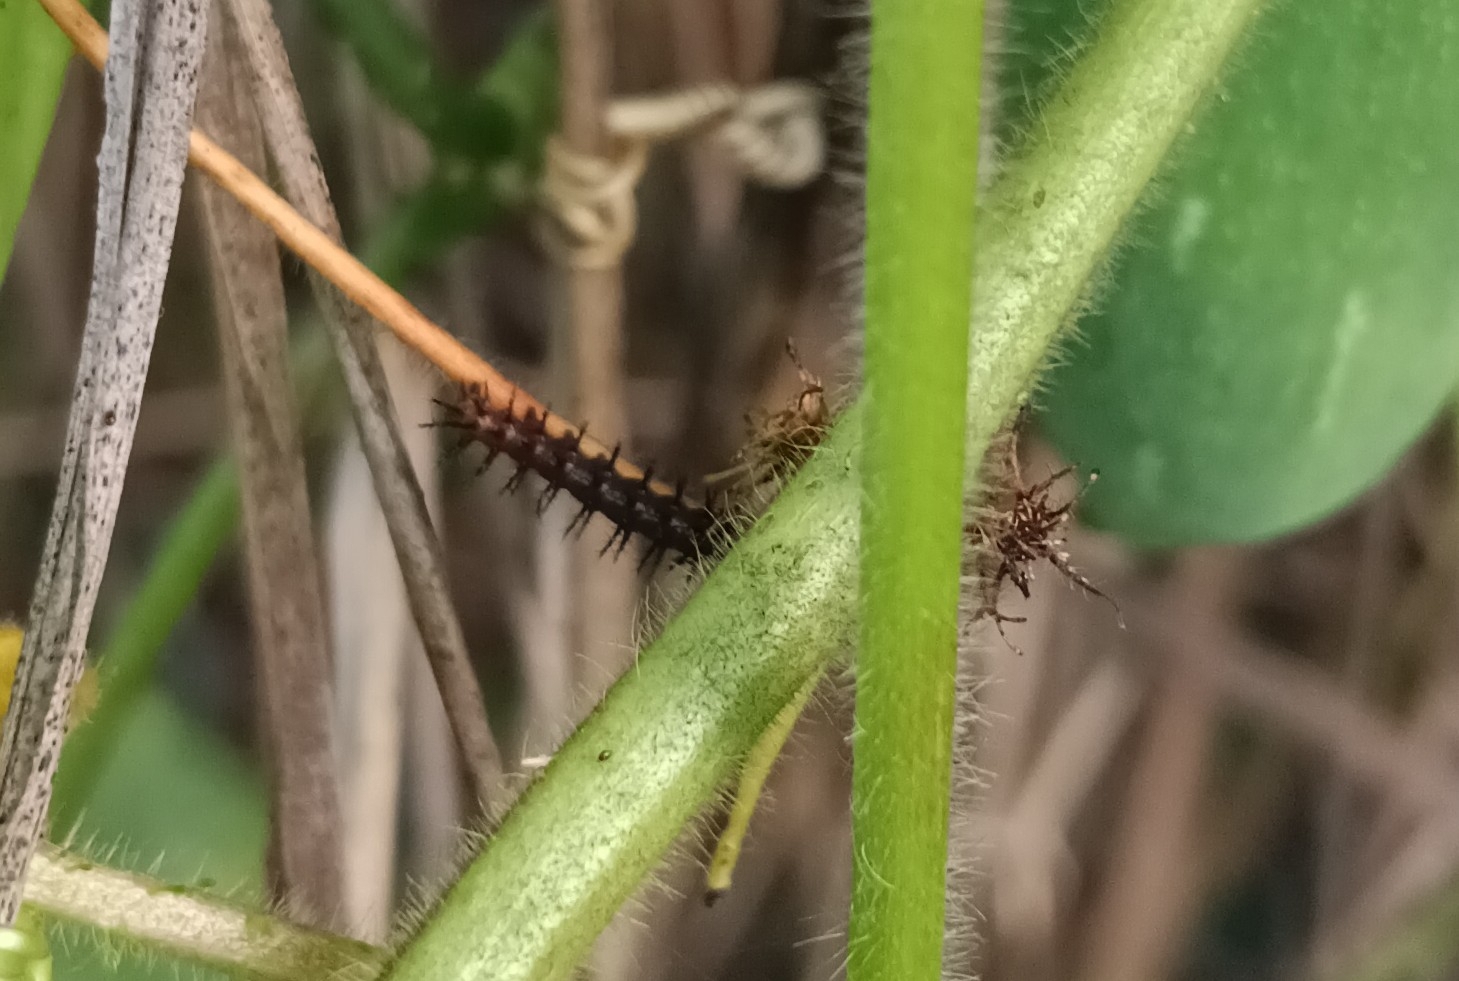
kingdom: Animalia
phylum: Arthropoda
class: Insecta
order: Lepidoptera
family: Nymphalidae
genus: Acraea
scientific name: Acraea terpsicore
